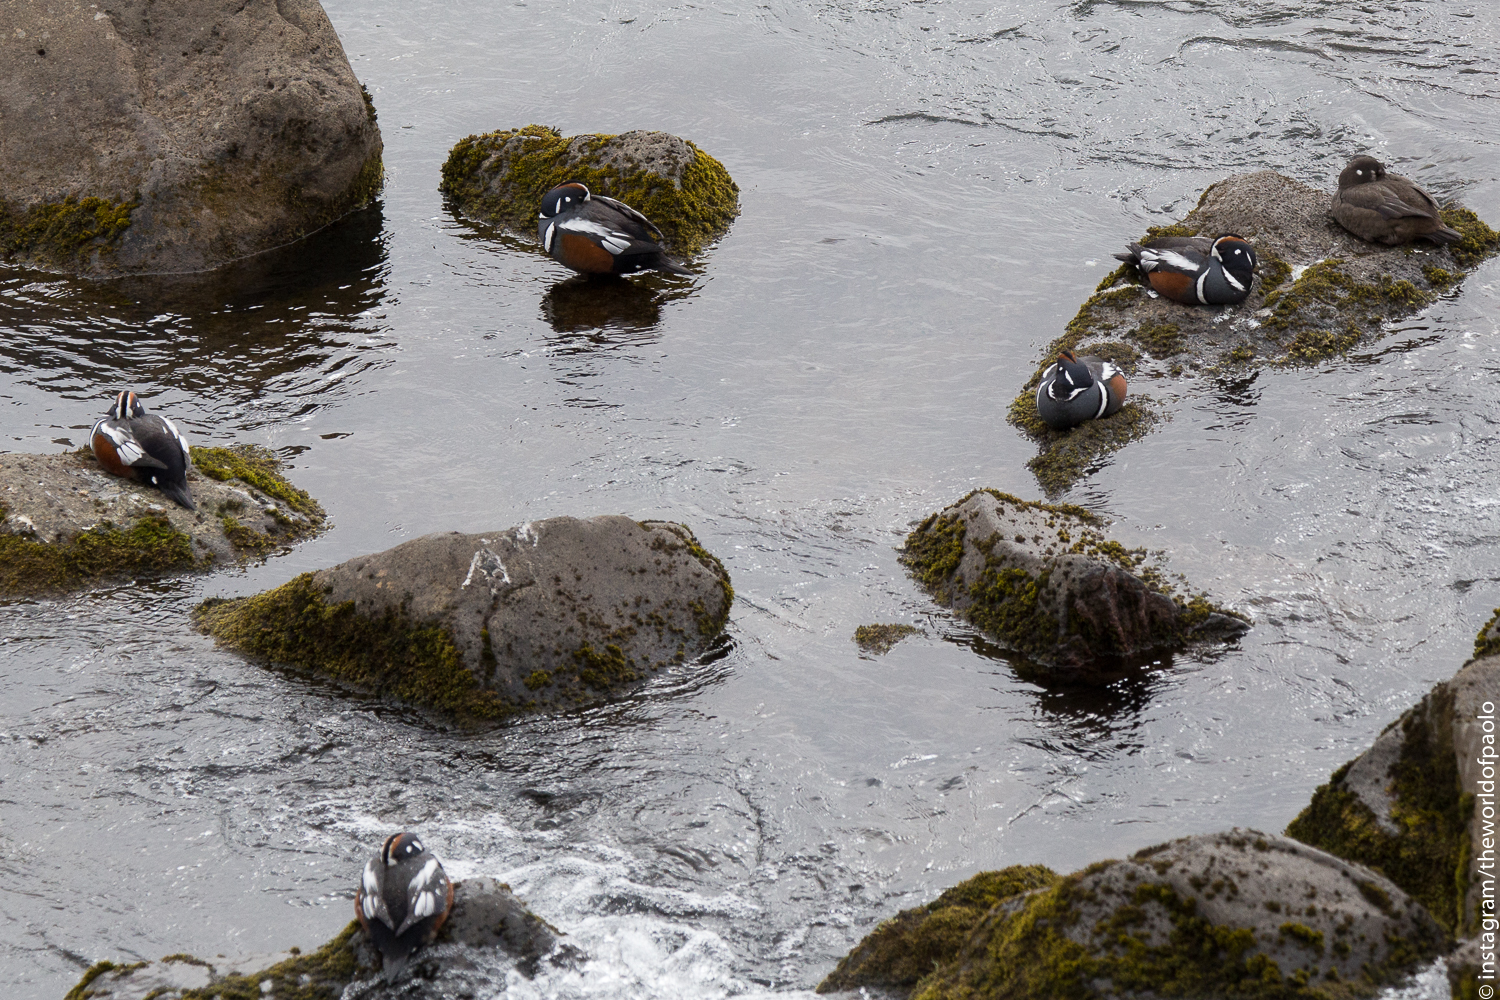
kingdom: Animalia
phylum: Chordata
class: Aves
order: Anseriformes
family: Anatidae
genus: Histrionicus
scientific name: Histrionicus histrionicus
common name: Harlequin duck
